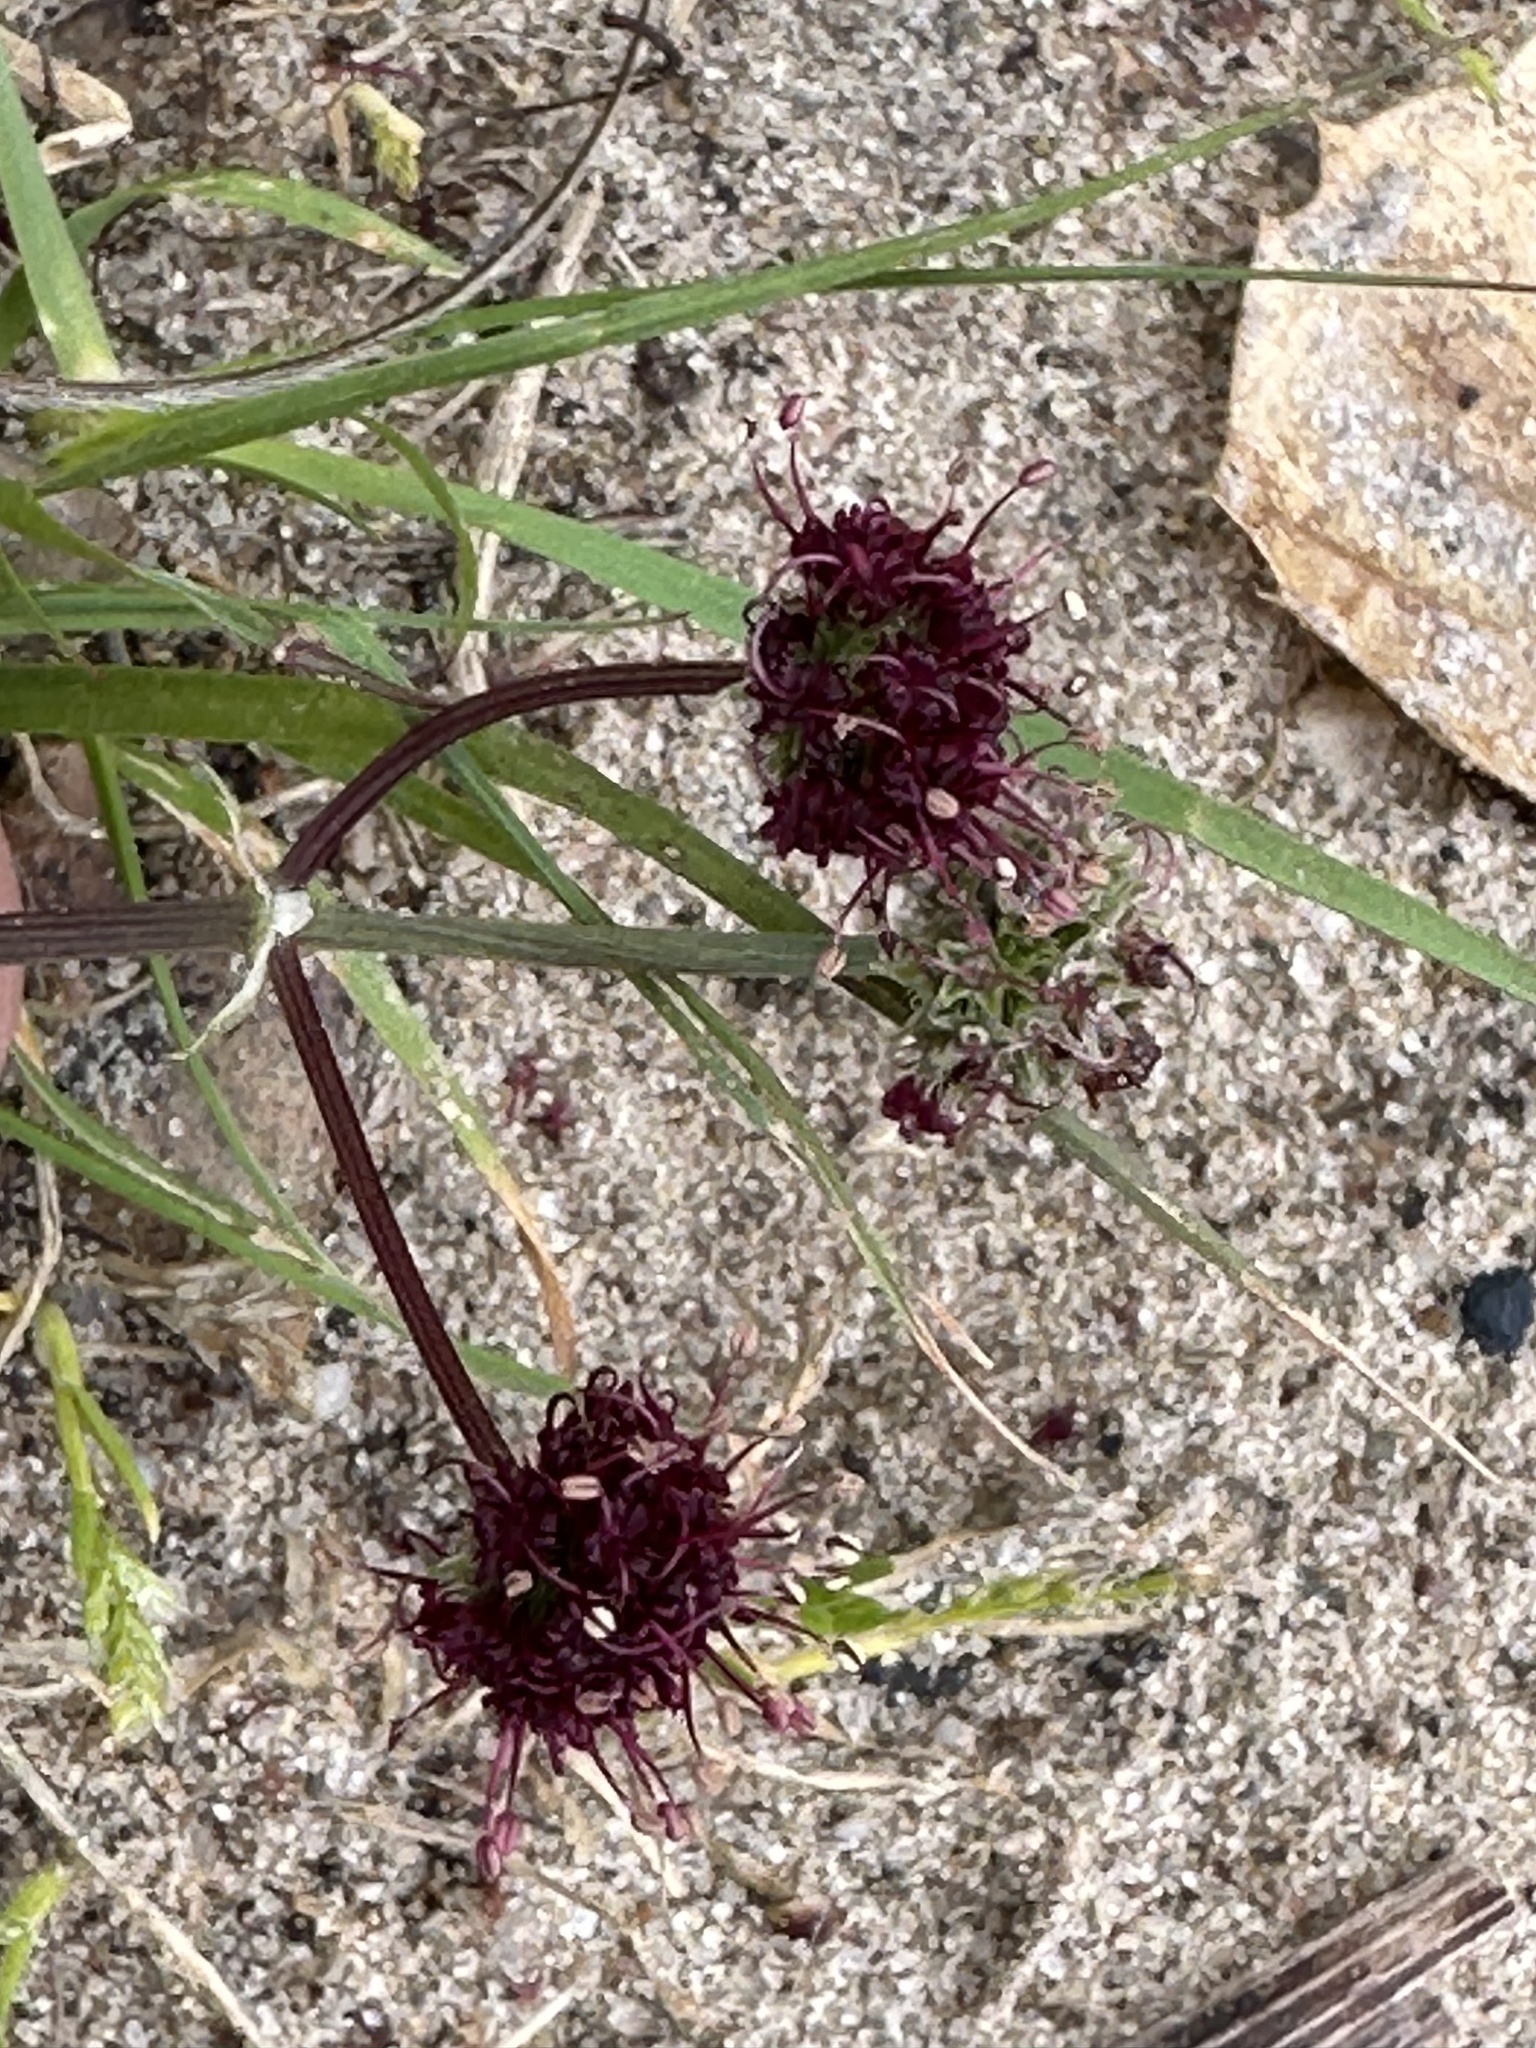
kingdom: Plantae
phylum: Tracheophyta
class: Magnoliopsida
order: Apiales
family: Apiaceae
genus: Sanicula
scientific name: Sanicula bipinnatifida
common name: Shoe-buttons
